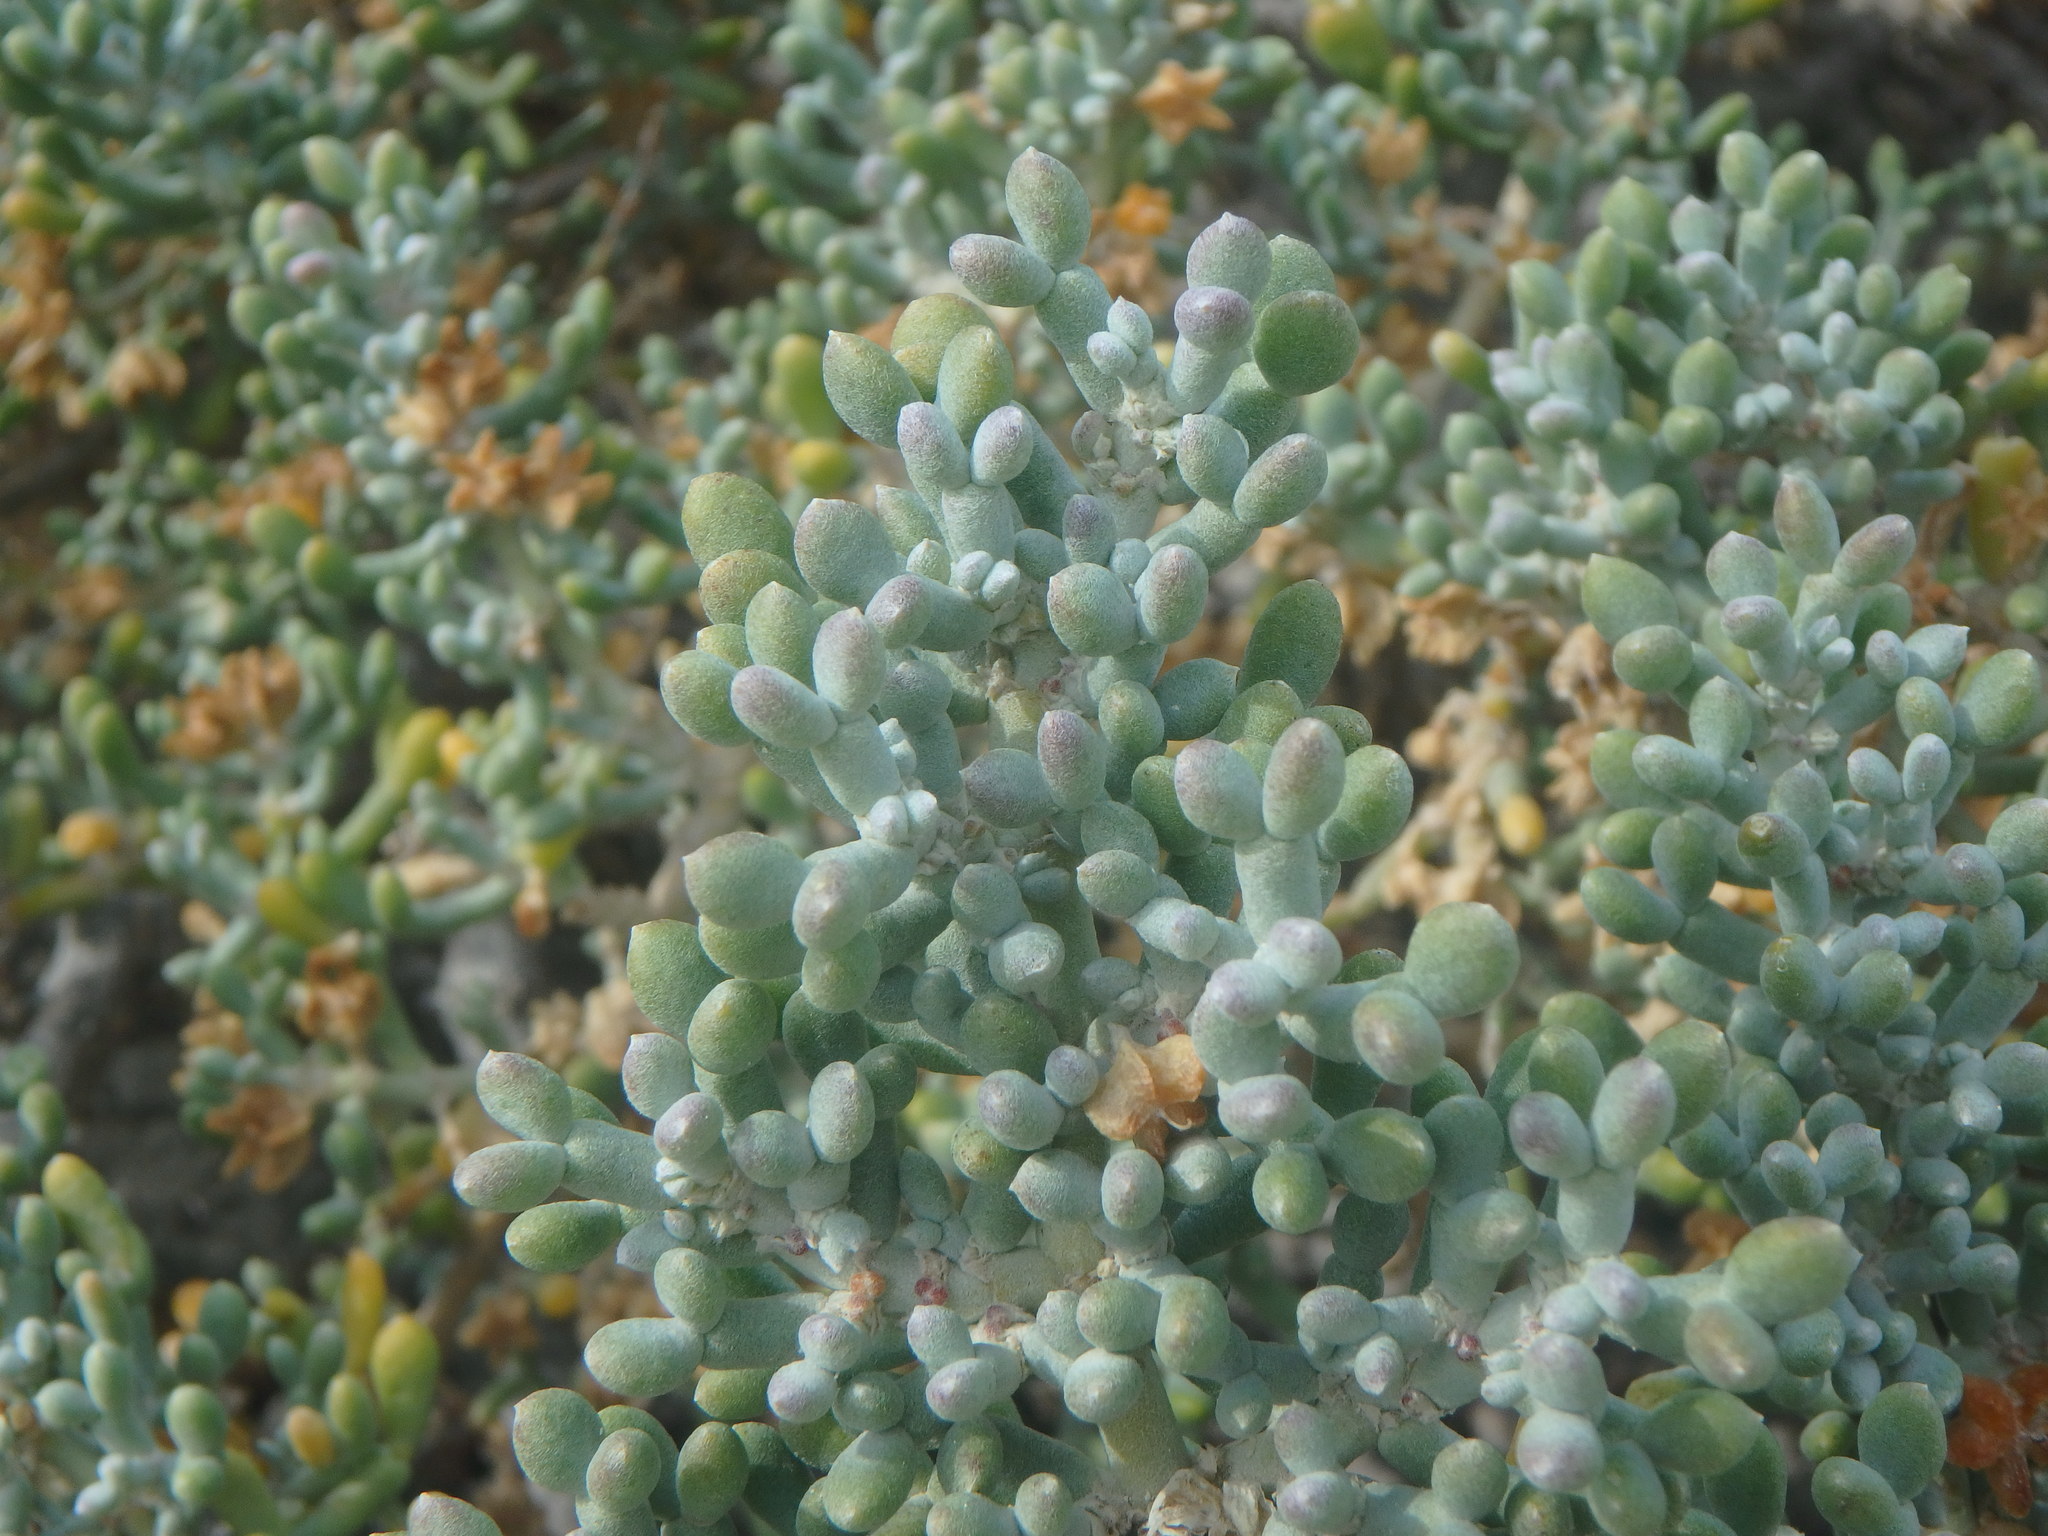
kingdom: Plantae
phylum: Tracheophyta
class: Magnoliopsida
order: Zygophyllales
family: Zygophyllaceae
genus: Tetraena
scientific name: Tetraena alba
